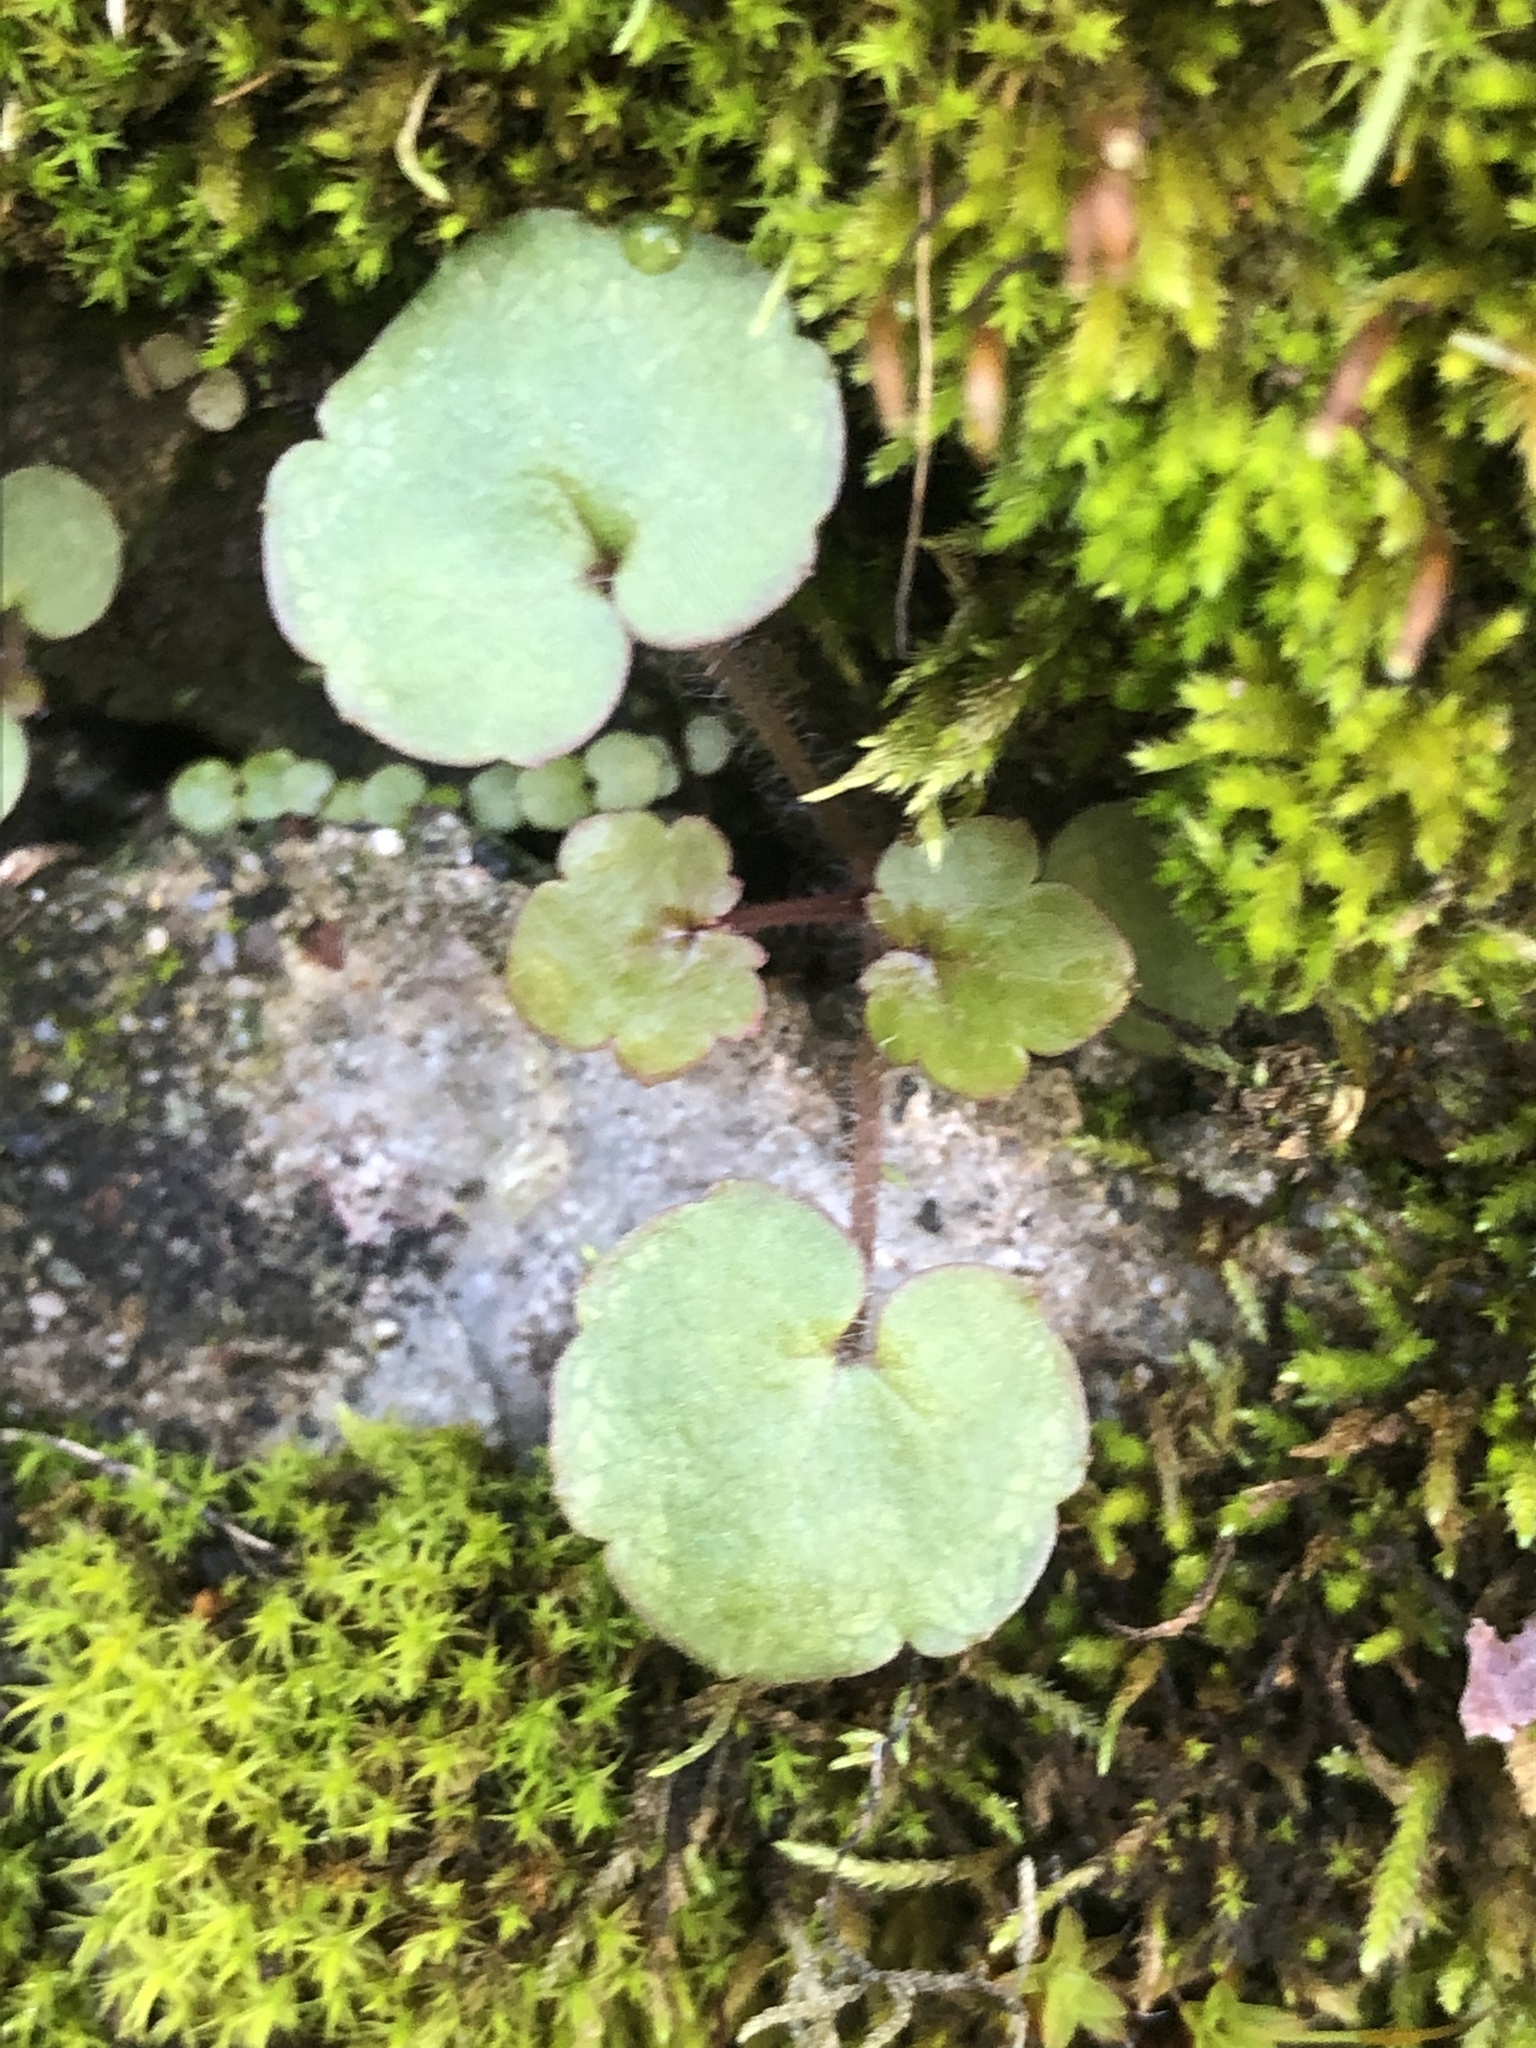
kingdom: Plantae
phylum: Tracheophyta
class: Magnoliopsida
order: Lamiales
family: Plantaginaceae
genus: Cymbalaria
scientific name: Cymbalaria muralis
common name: Ivy-leaved toadflax
